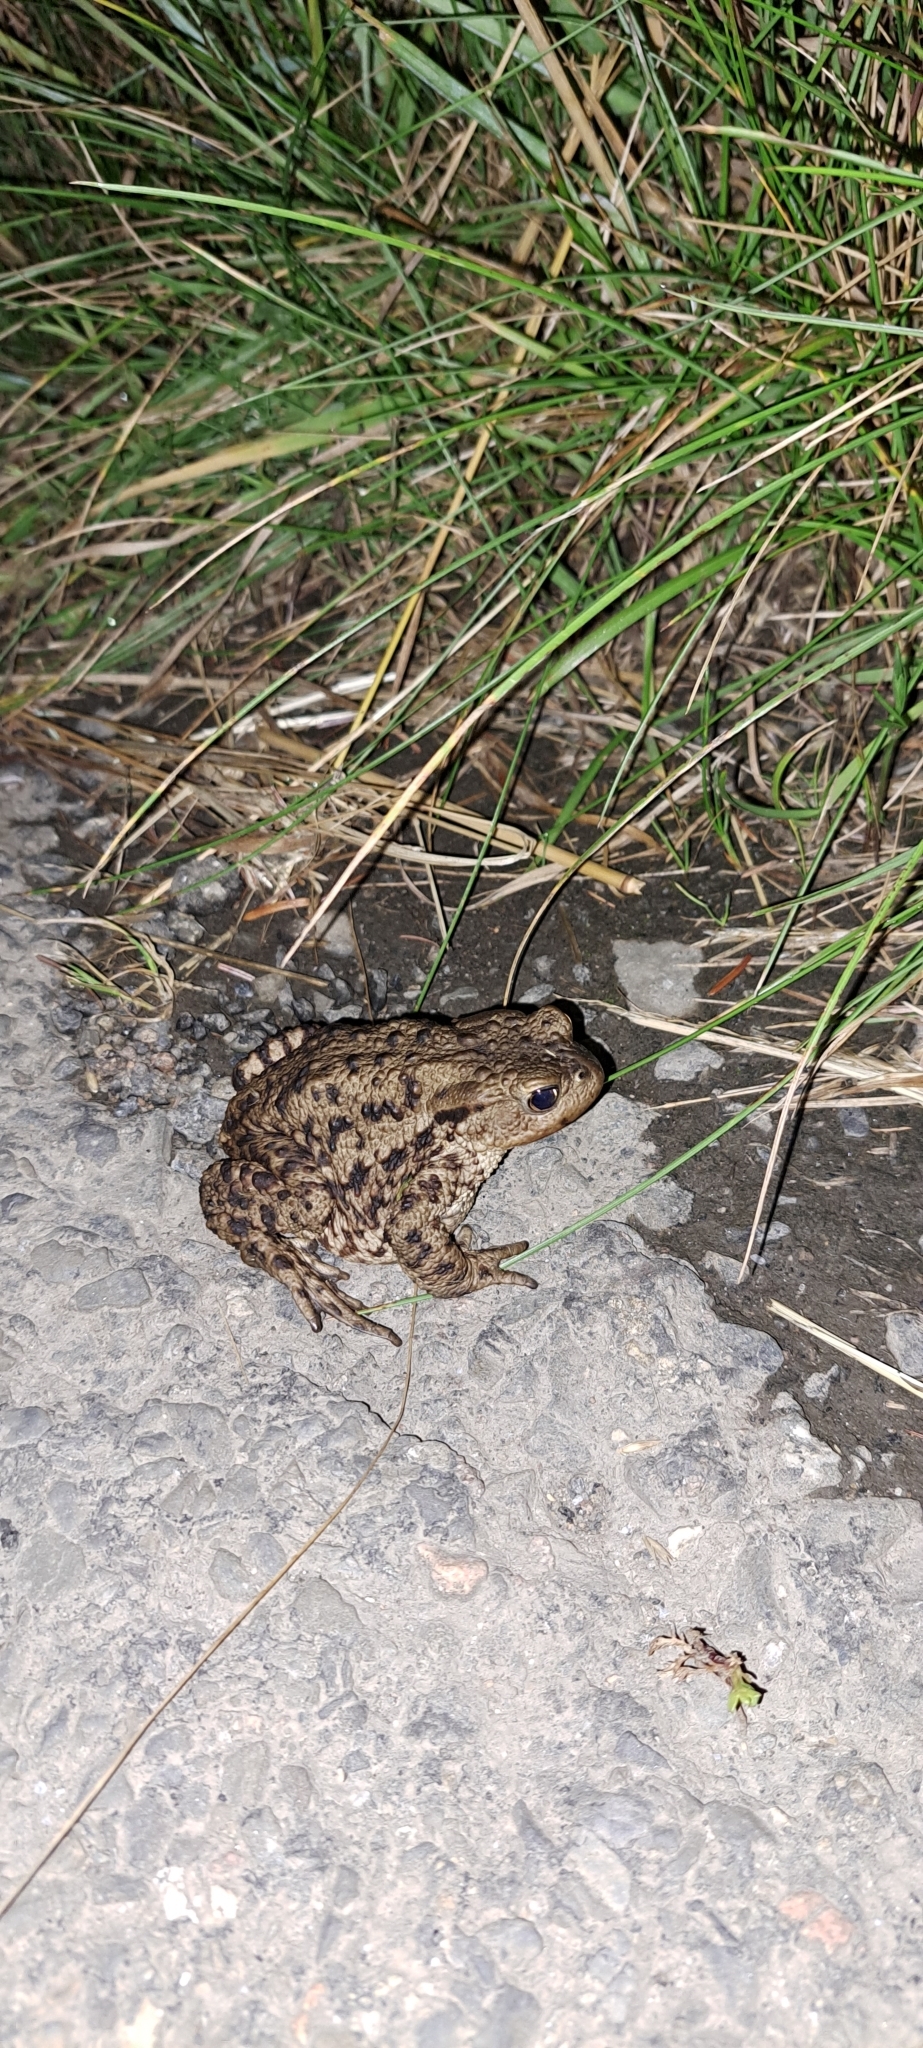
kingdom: Animalia
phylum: Chordata
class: Amphibia
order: Anura
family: Bufonidae
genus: Bufo
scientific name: Bufo bufo
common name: Common toad
